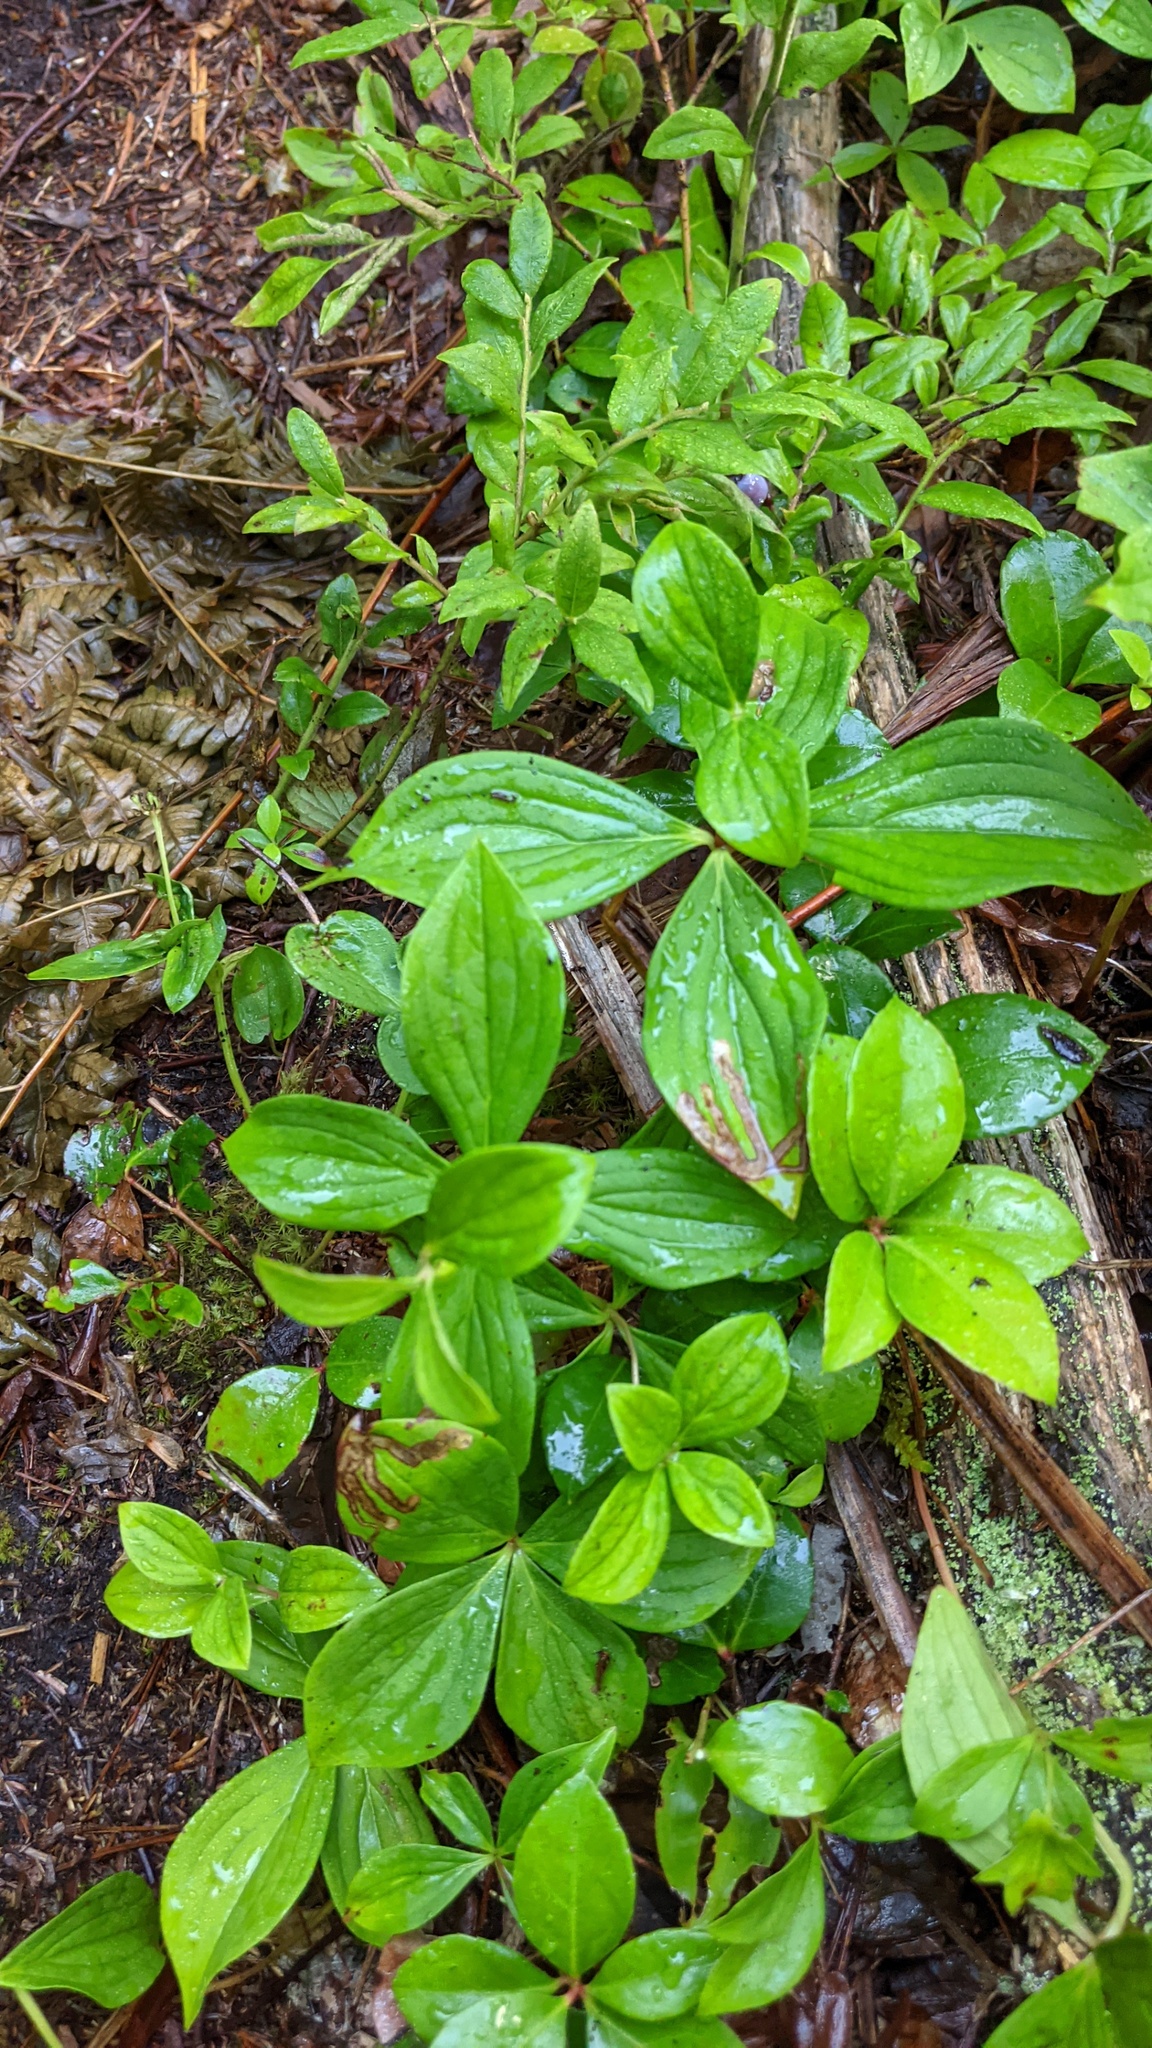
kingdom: Plantae
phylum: Tracheophyta
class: Magnoliopsida
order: Cornales
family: Cornaceae
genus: Cornus
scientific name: Cornus canadensis
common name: Creeping dogwood
